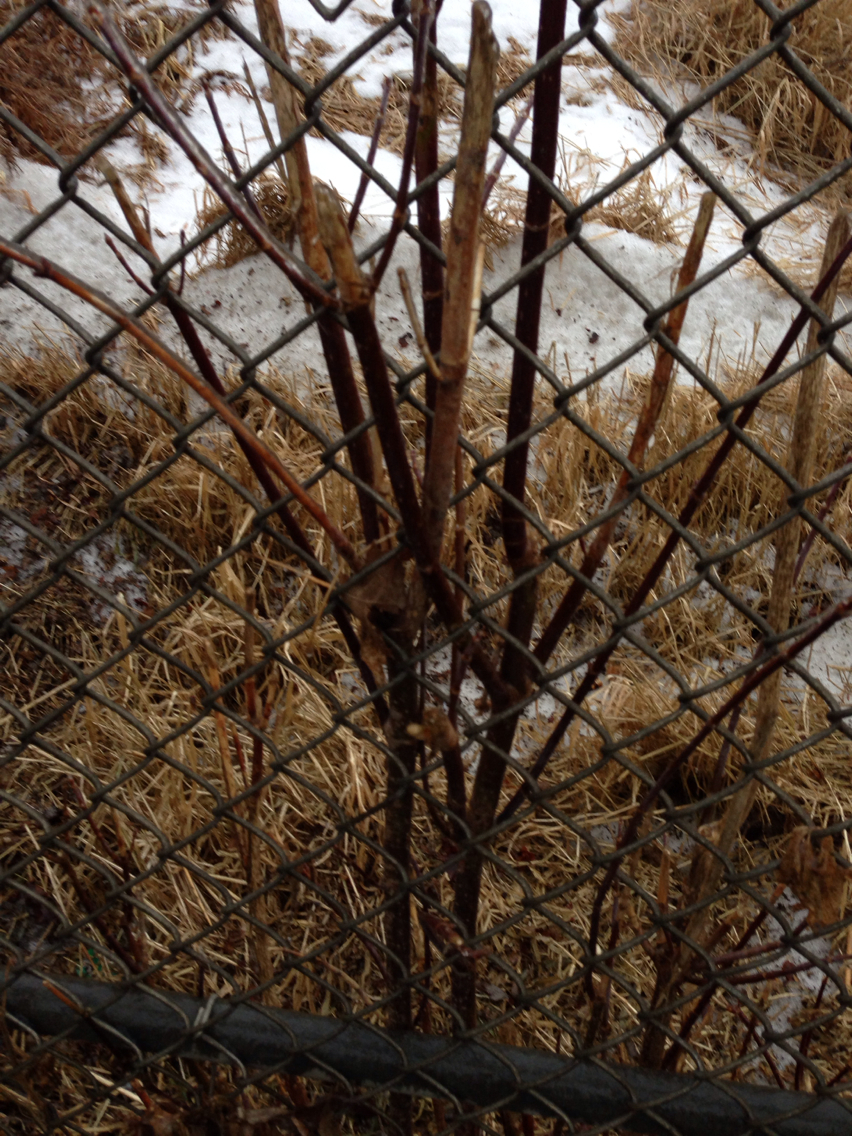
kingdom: Plantae
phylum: Tracheophyta
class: Magnoliopsida
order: Sapindales
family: Sapindaceae
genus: Acer
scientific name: Acer negundo
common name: Ashleaf maple
